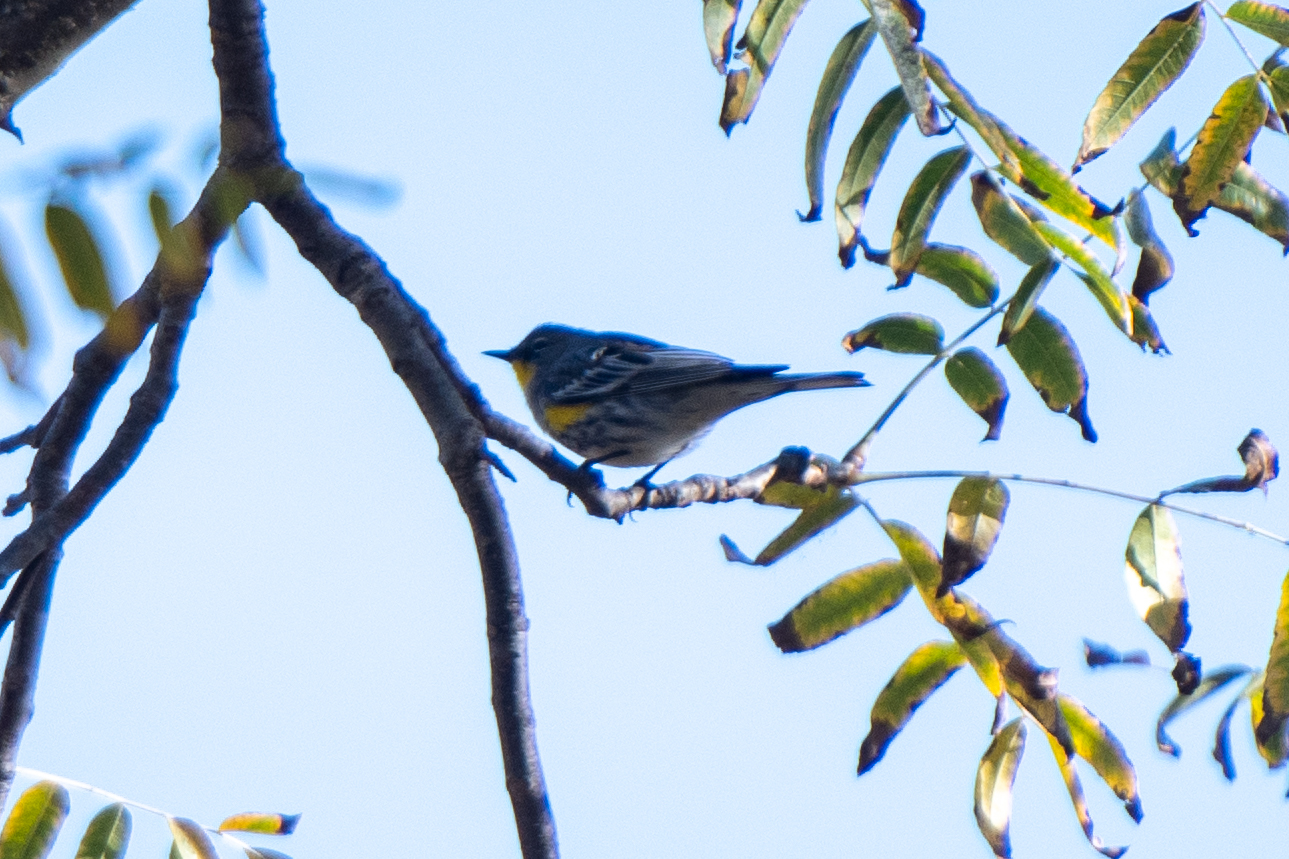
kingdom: Animalia
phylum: Chordata
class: Aves
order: Passeriformes
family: Parulidae
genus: Setophaga
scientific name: Setophaga coronata
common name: Myrtle warbler
